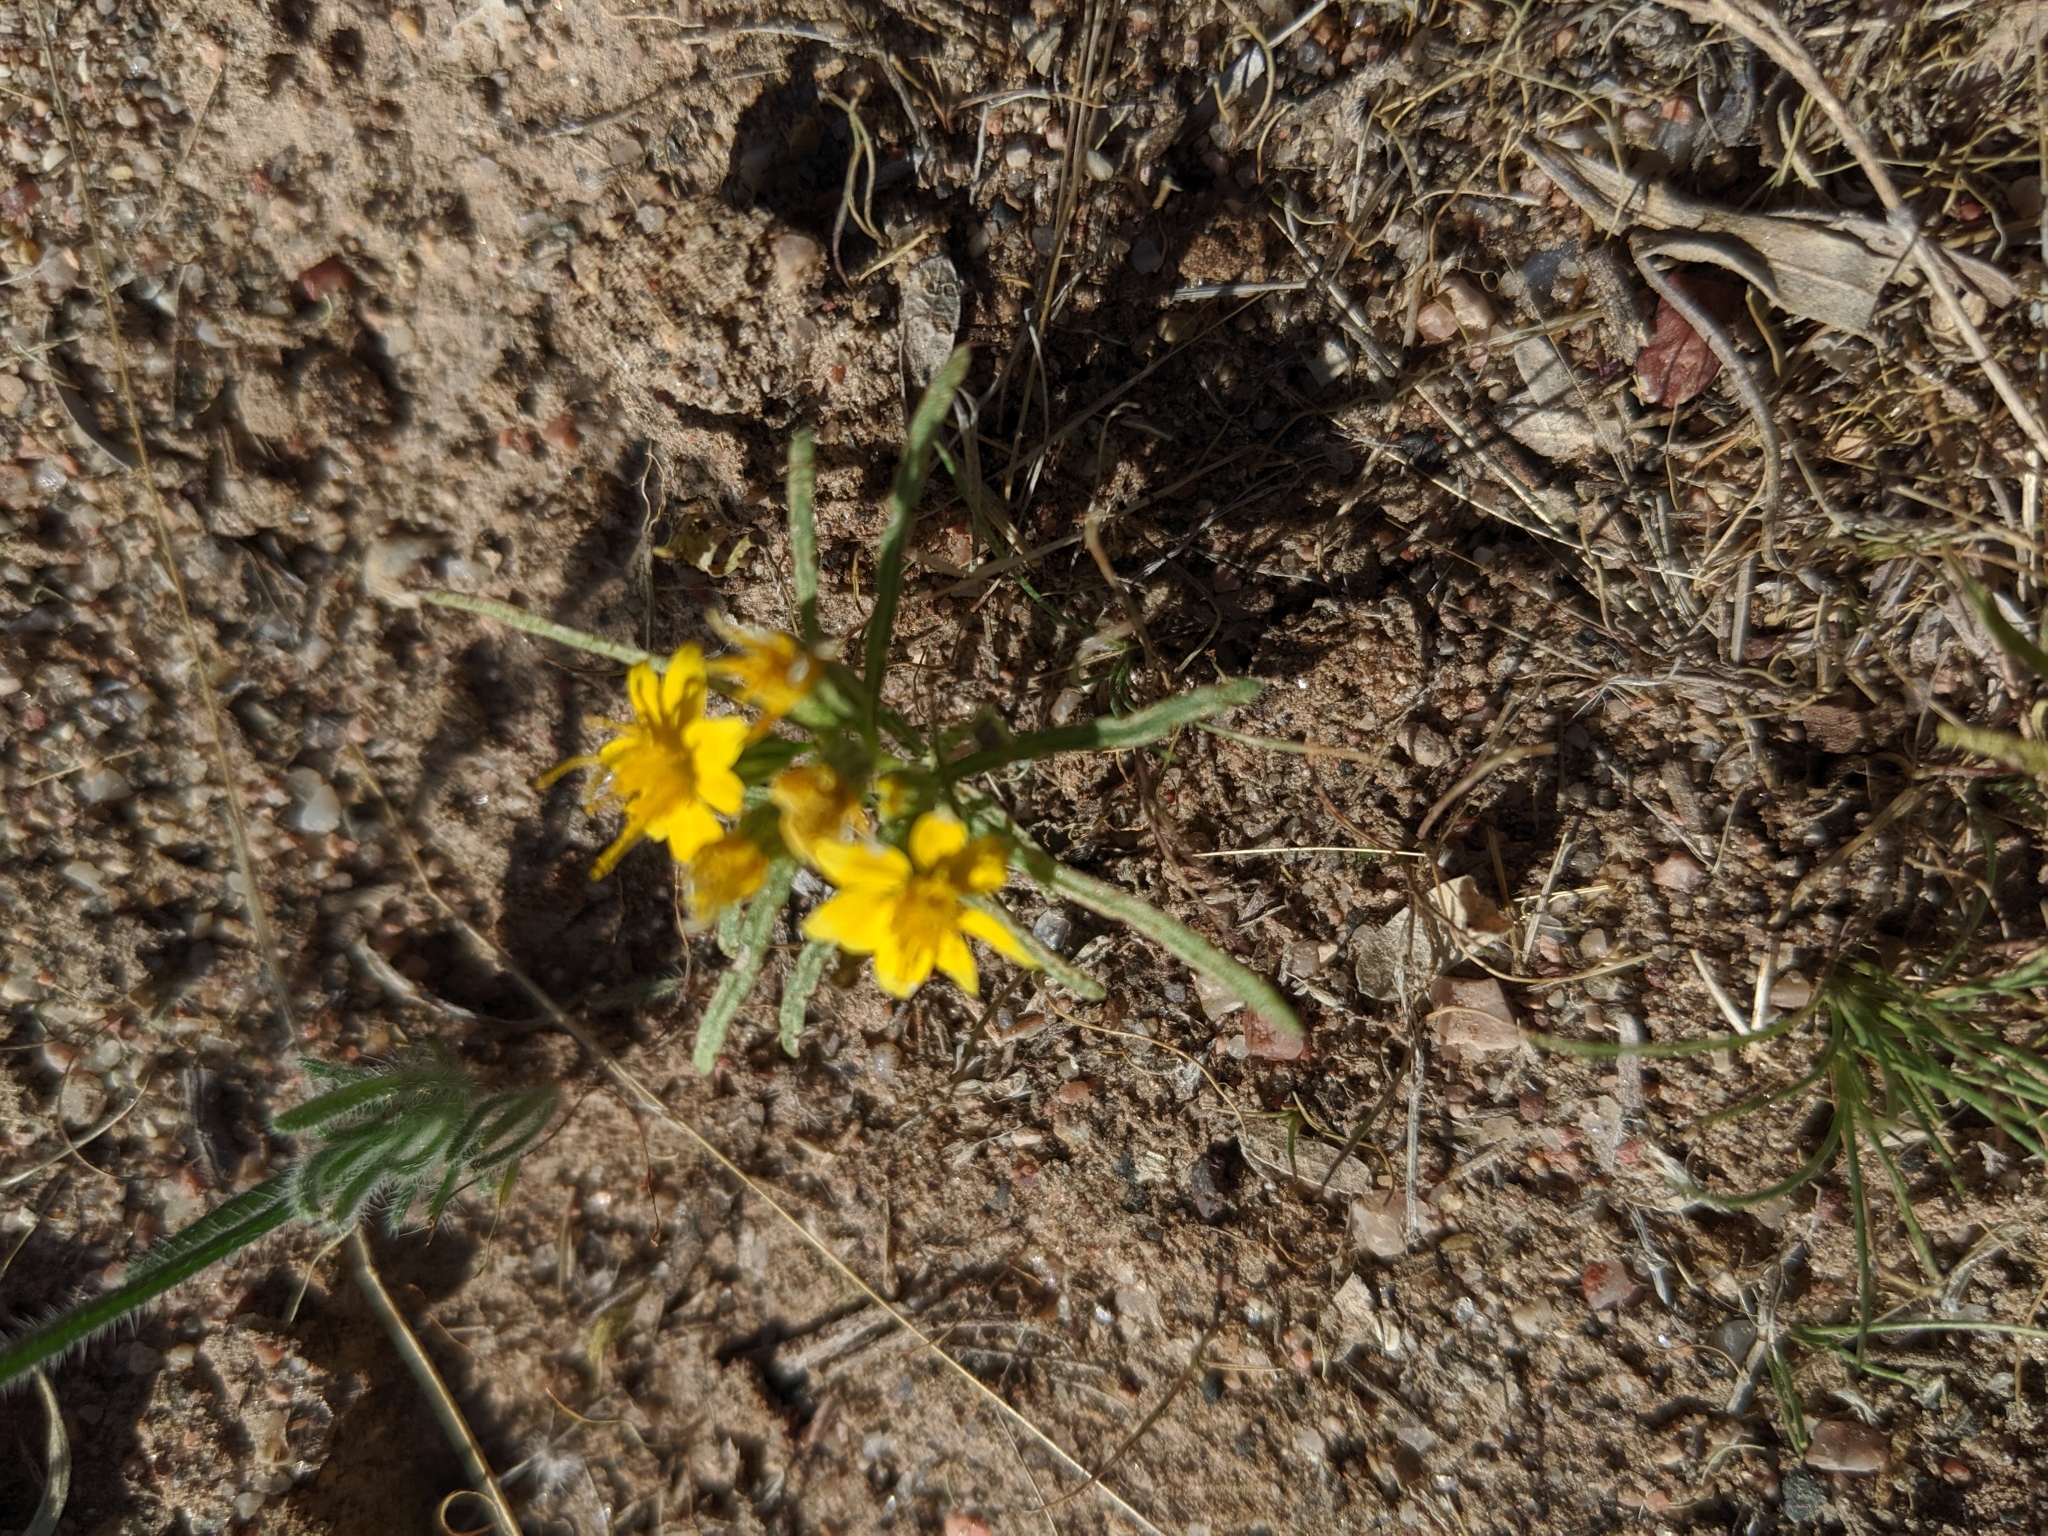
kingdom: Plantae
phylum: Tracheophyta
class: Magnoliopsida
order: Asterales
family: Asteraceae
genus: Pectis
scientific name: Pectis papposa
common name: Many-bristle chinchweed
